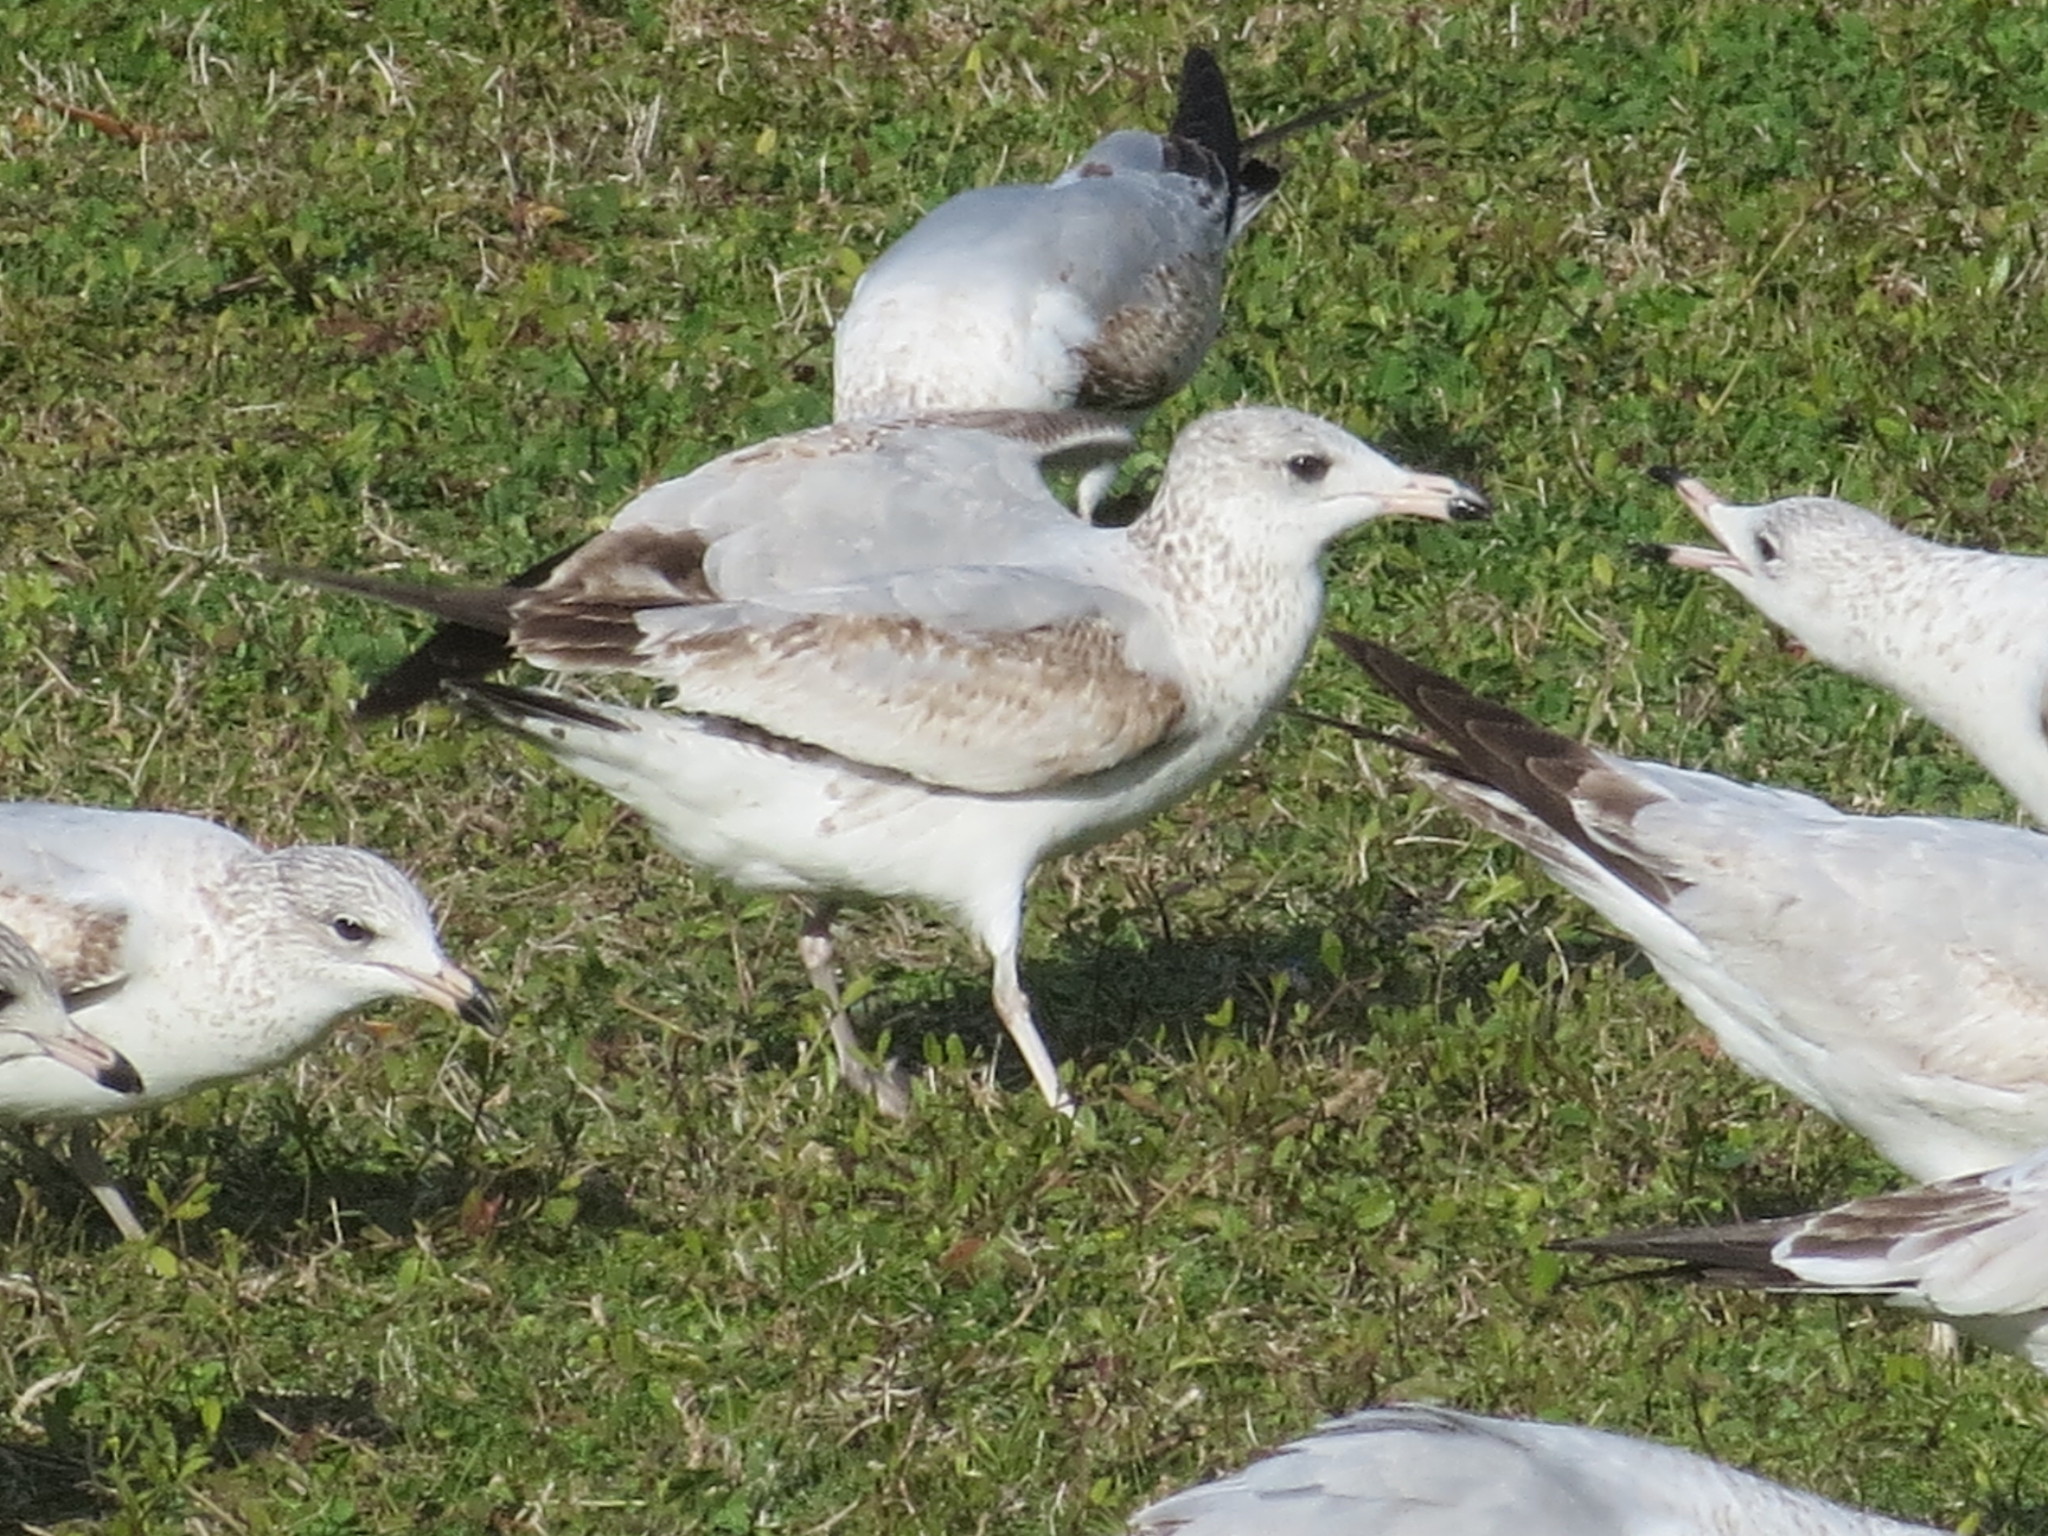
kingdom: Animalia
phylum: Chordata
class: Aves
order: Charadriiformes
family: Laridae
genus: Larus
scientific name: Larus delawarensis
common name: Ring-billed gull
